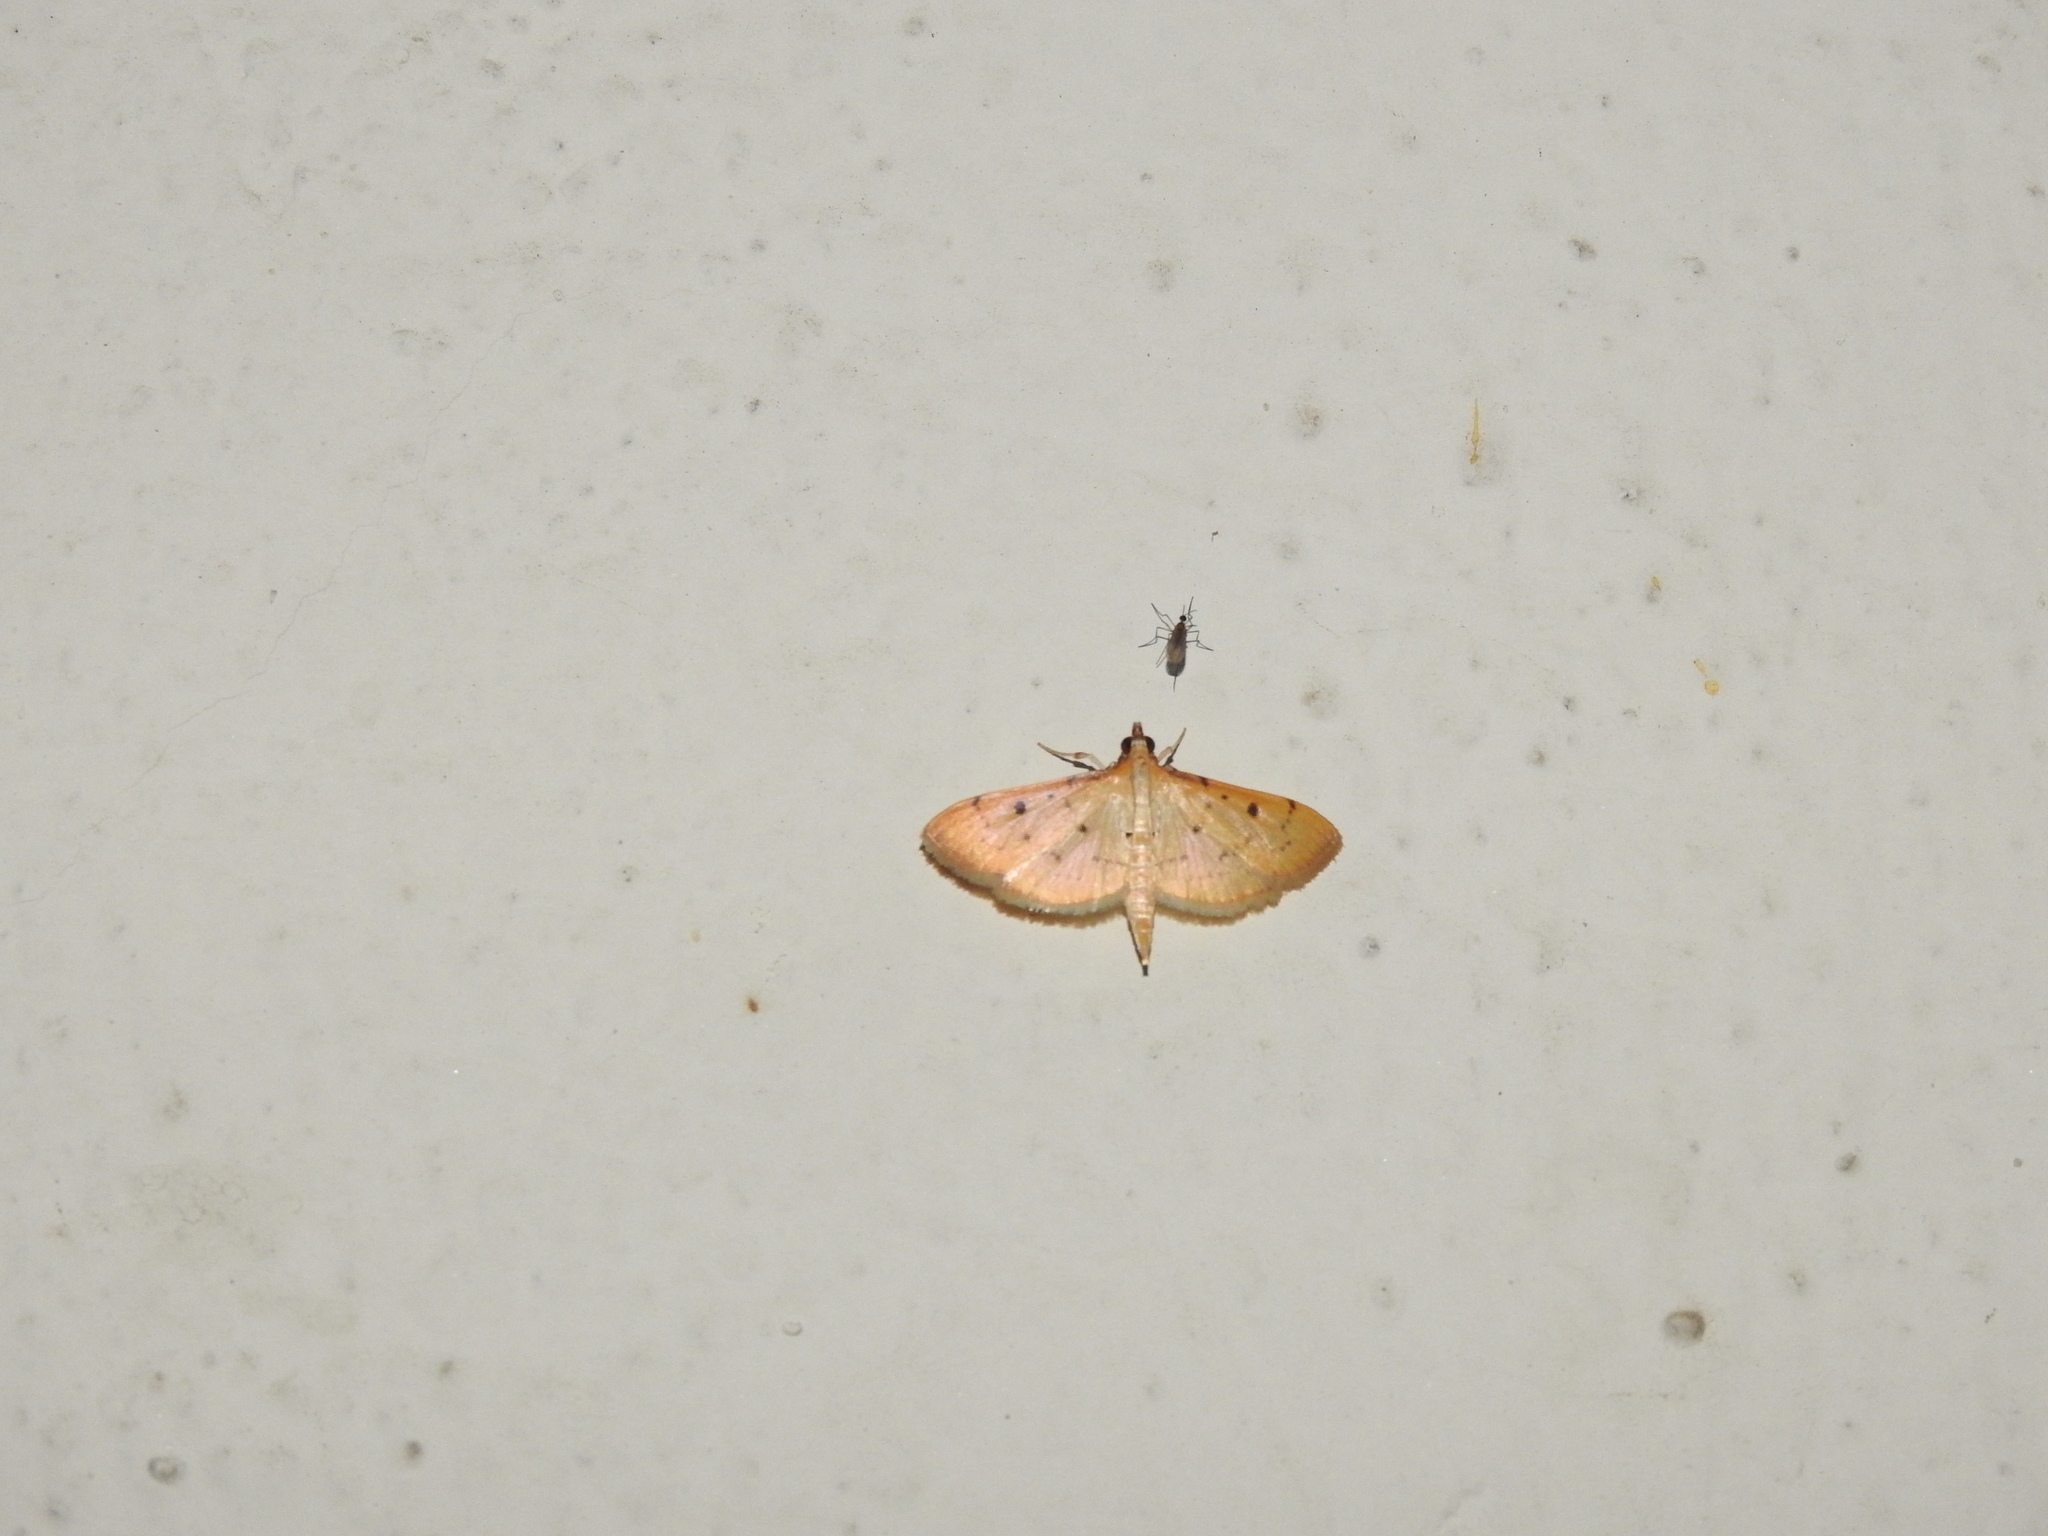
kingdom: Animalia
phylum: Arthropoda
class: Insecta
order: Lepidoptera
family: Crambidae
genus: Herpetogramma
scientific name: Herpetogramma basalis
